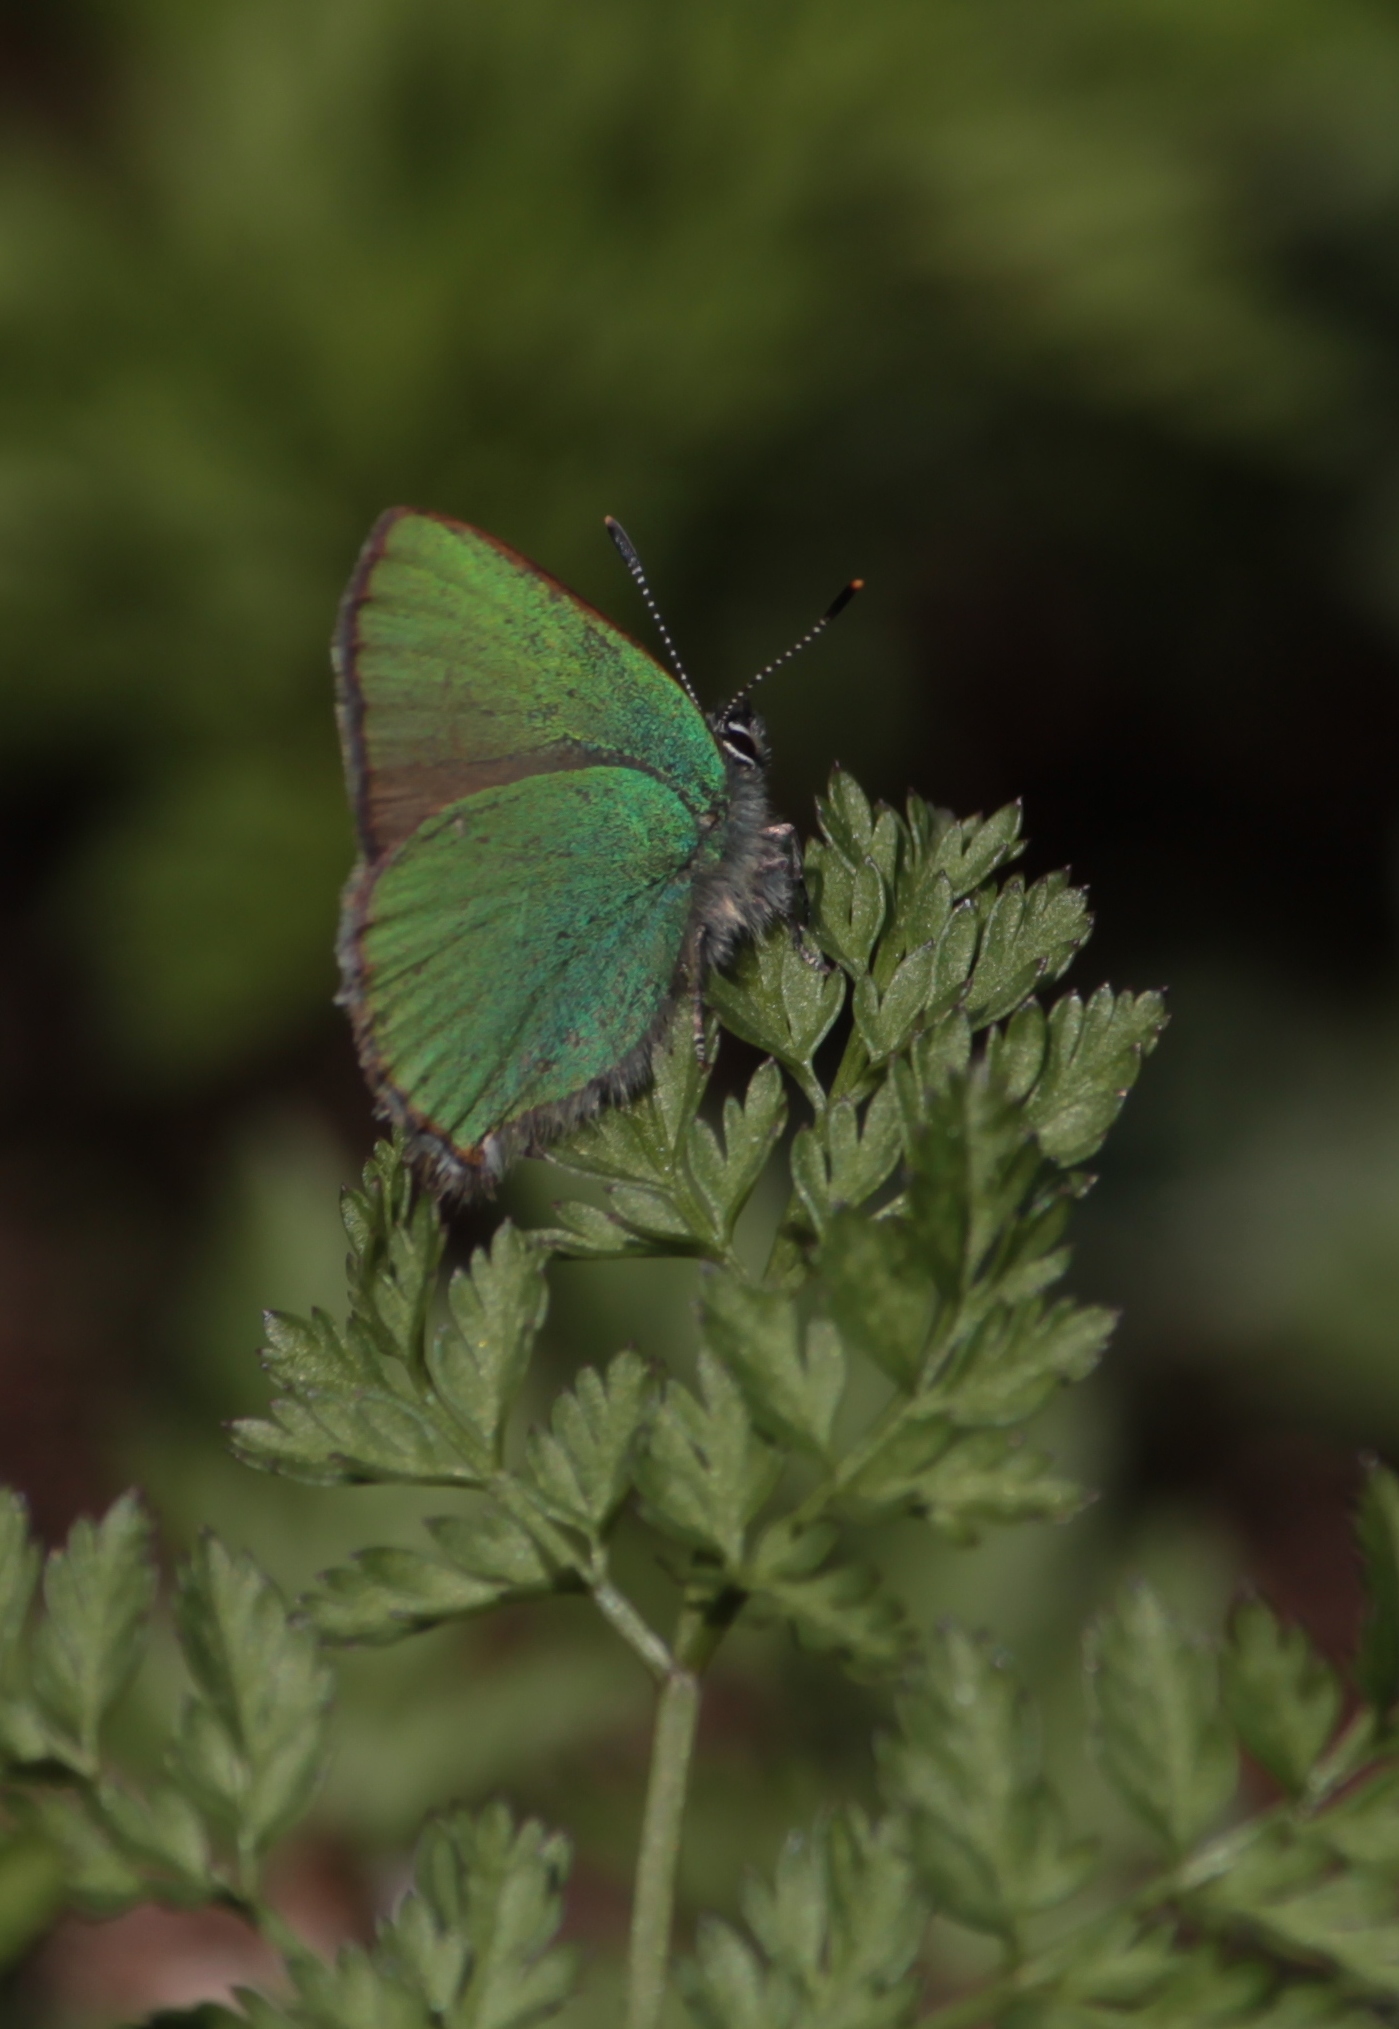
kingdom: Animalia
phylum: Arthropoda
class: Insecta
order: Lepidoptera
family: Lycaenidae
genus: Callophrys
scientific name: Callophrys rubi
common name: Green hairstreak
